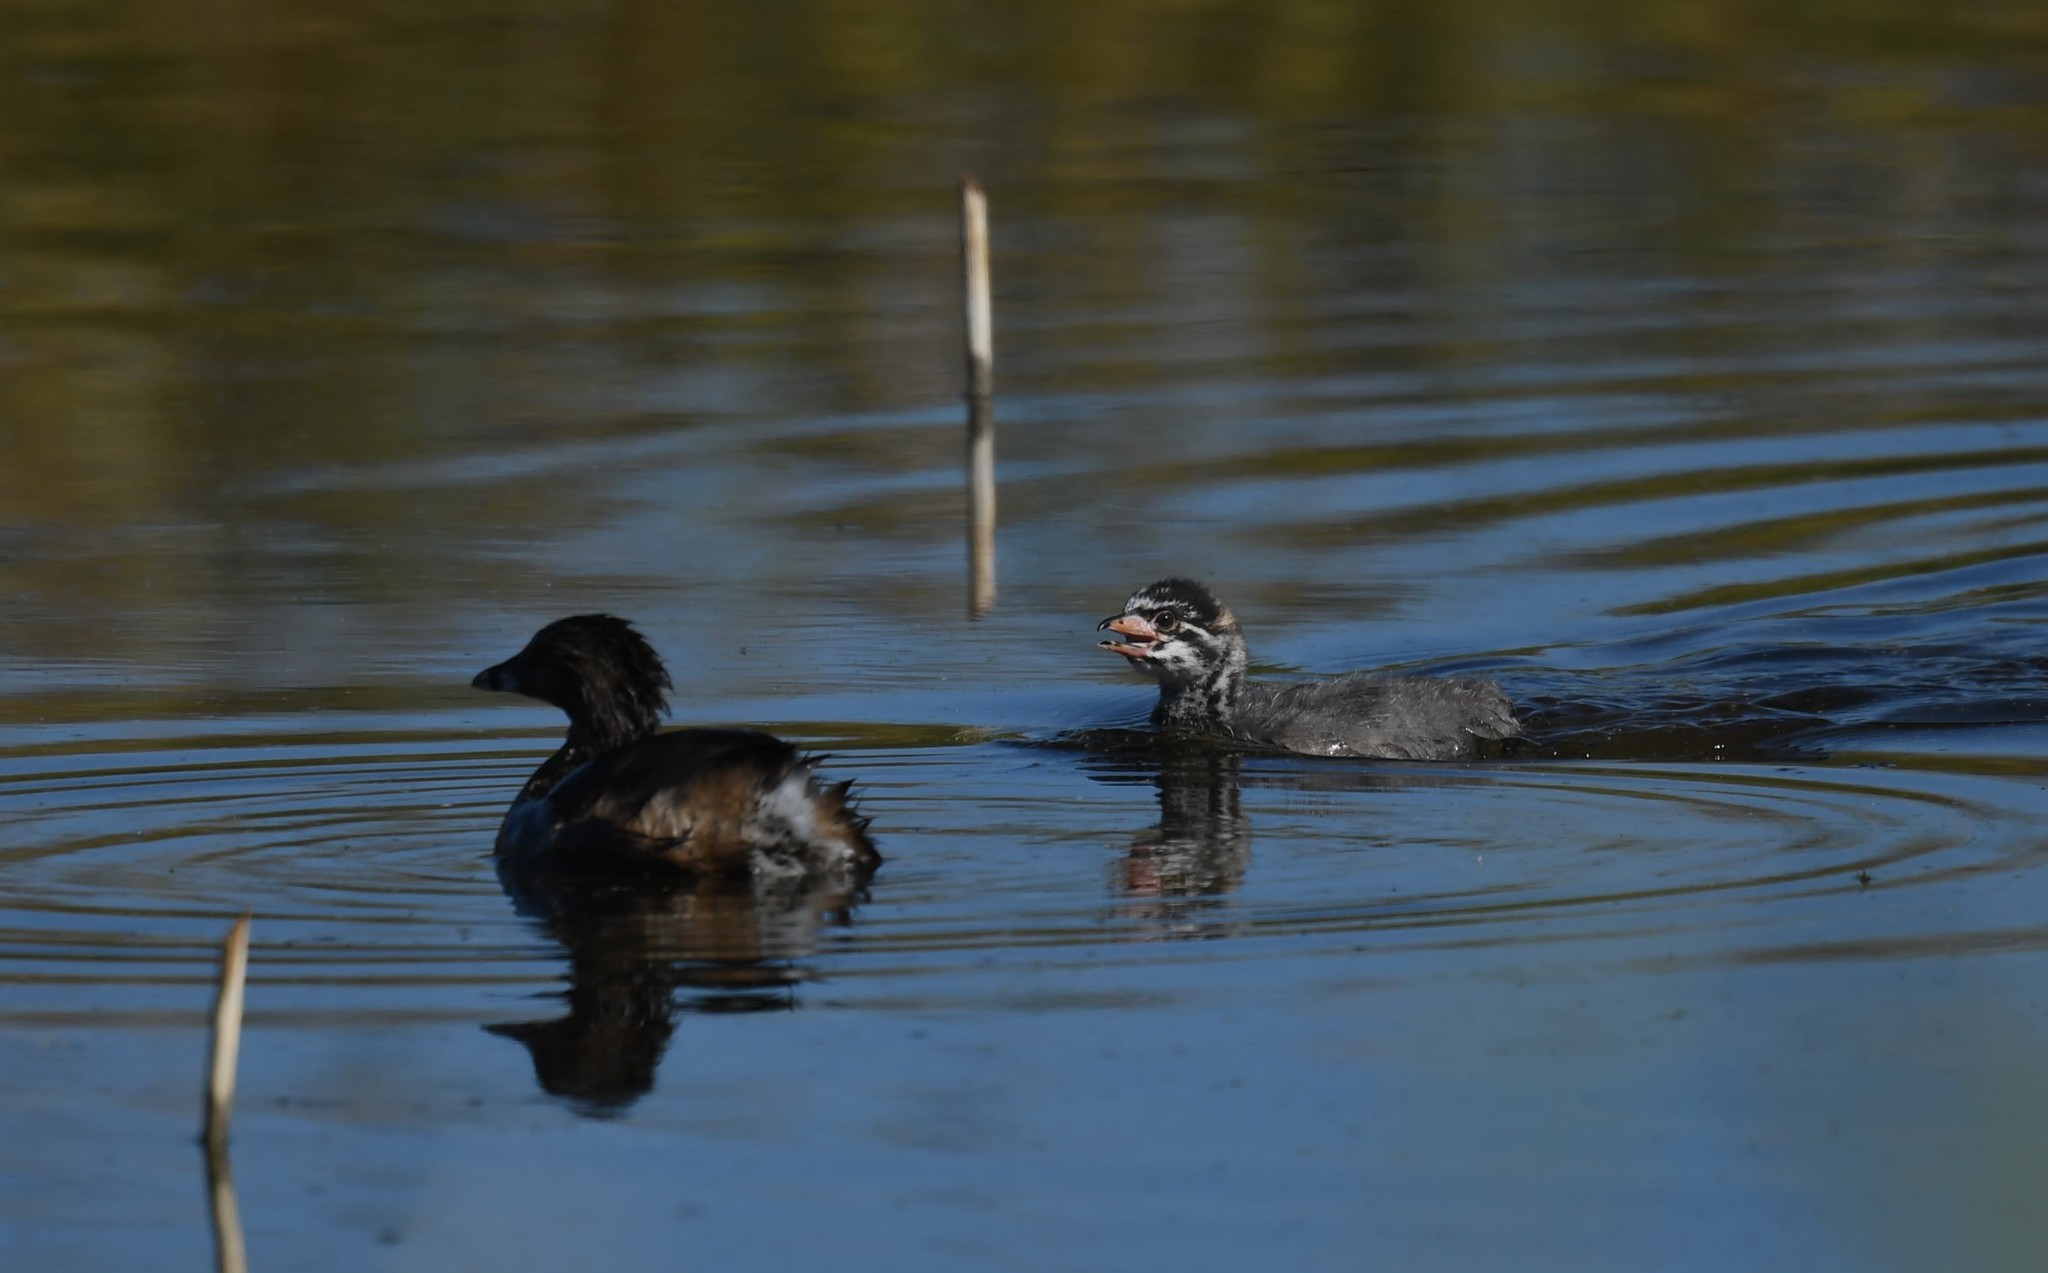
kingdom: Animalia
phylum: Chordata
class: Aves
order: Podicipediformes
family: Podicipedidae
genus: Podilymbus
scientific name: Podilymbus podiceps
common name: Pied-billed grebe
